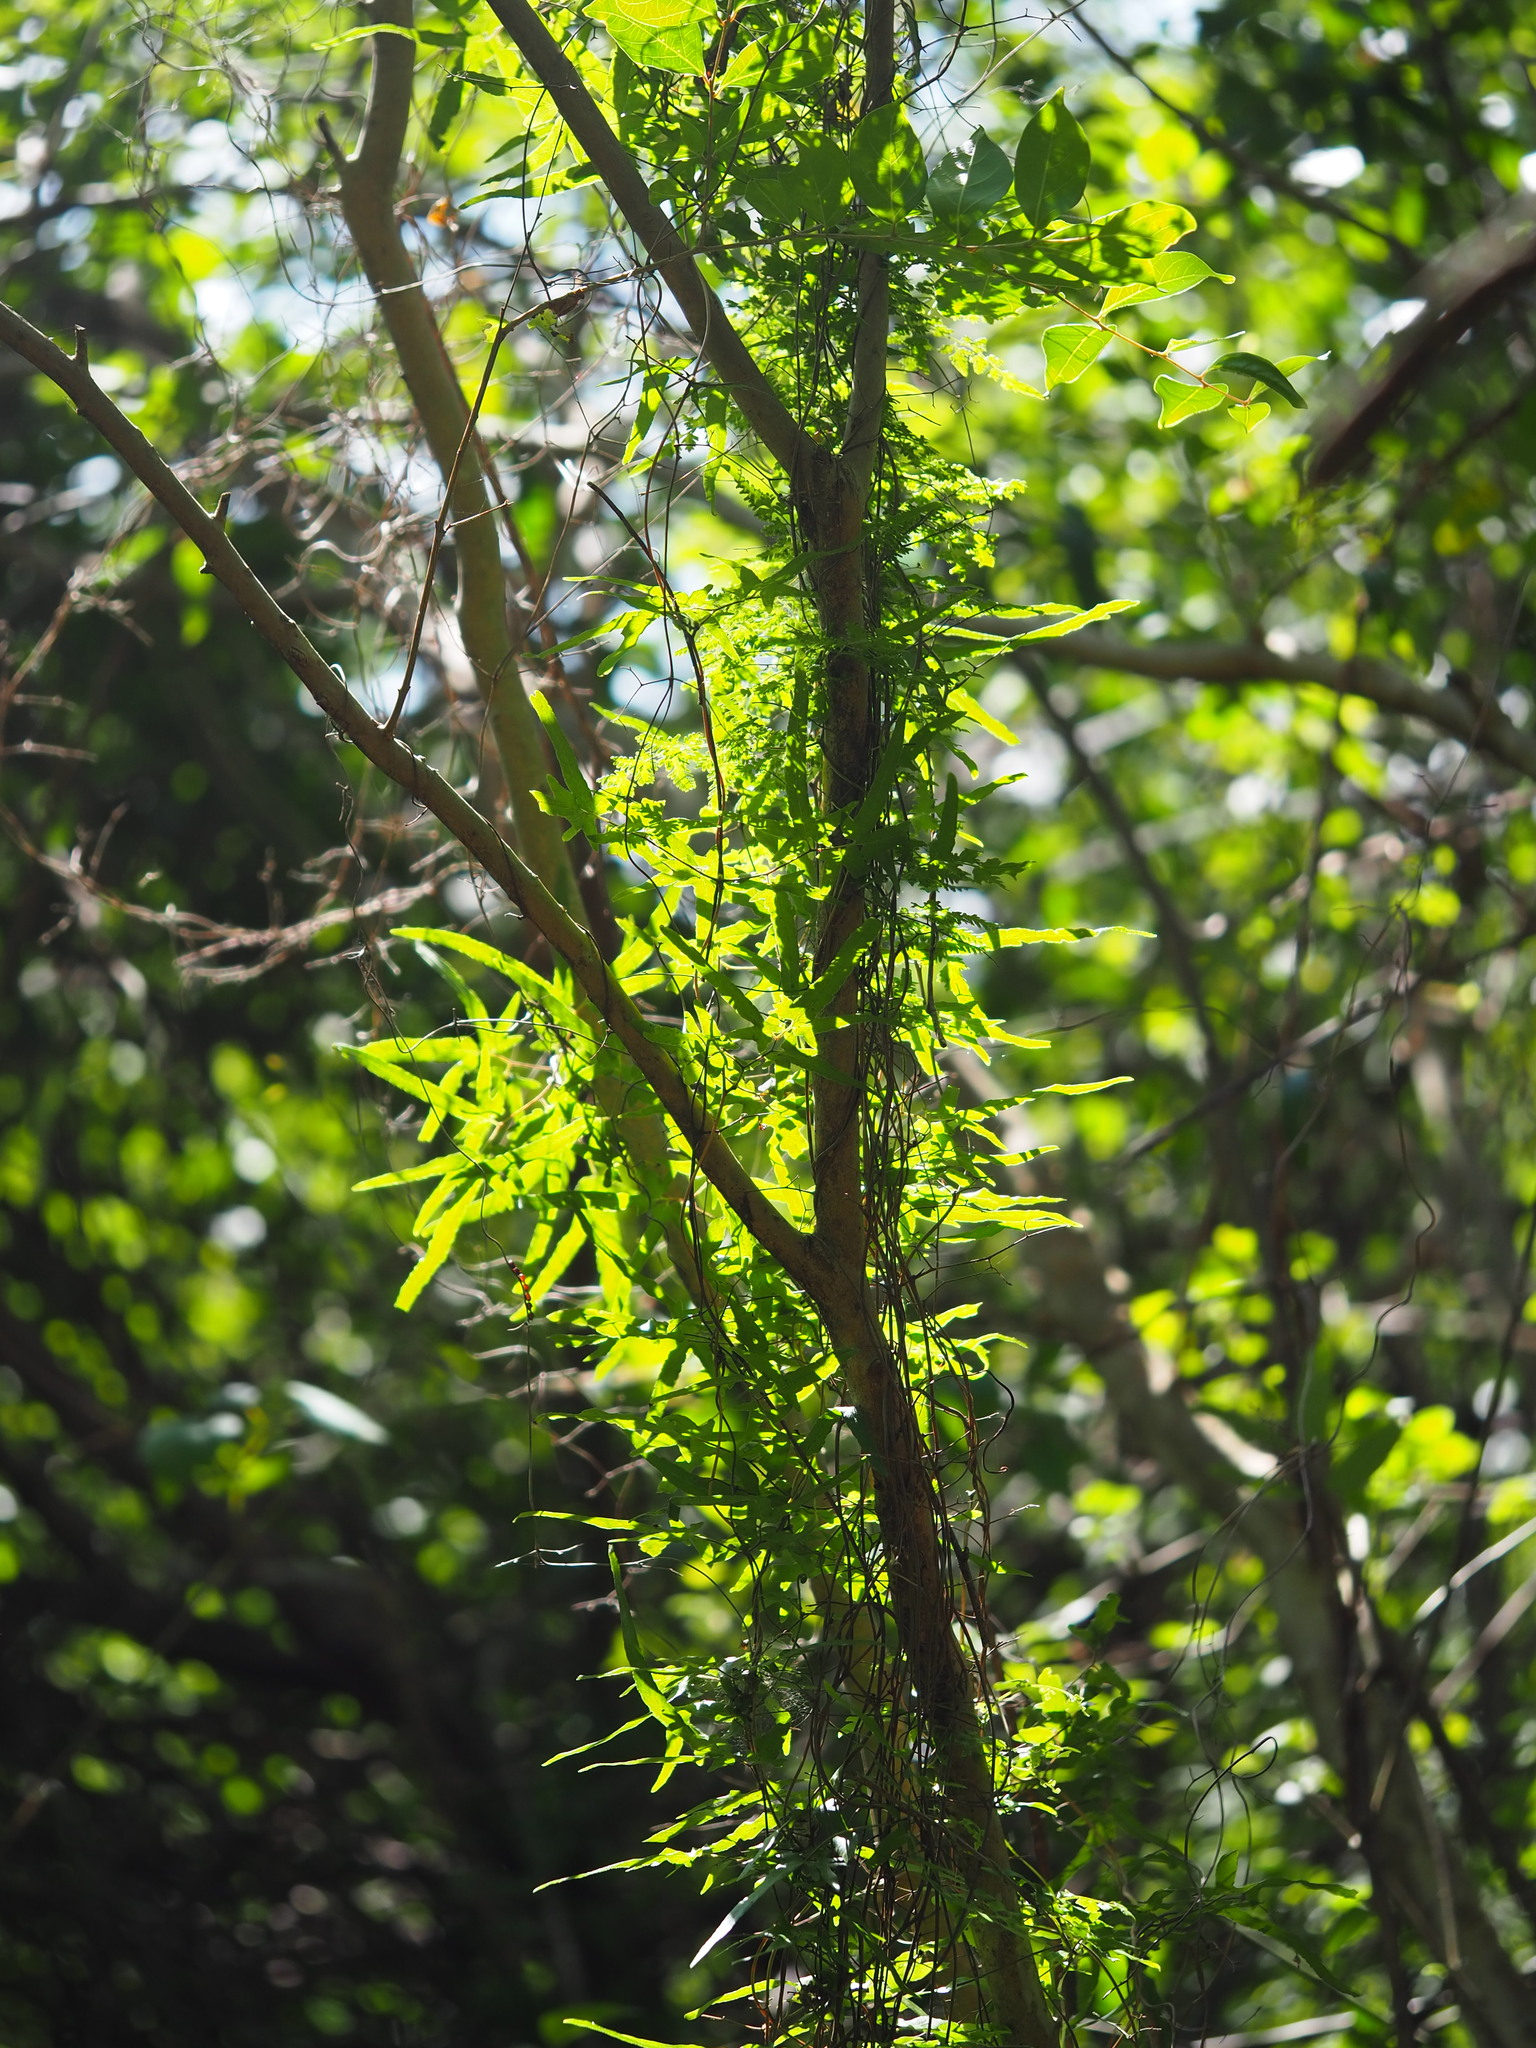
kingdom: Plantae
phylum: Tracheophyta
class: Polypodiopsida
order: Schizaeales
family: Lygodiaceae
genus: Lygodium
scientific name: Lygodium japonicum
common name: Japanese climbing fern
